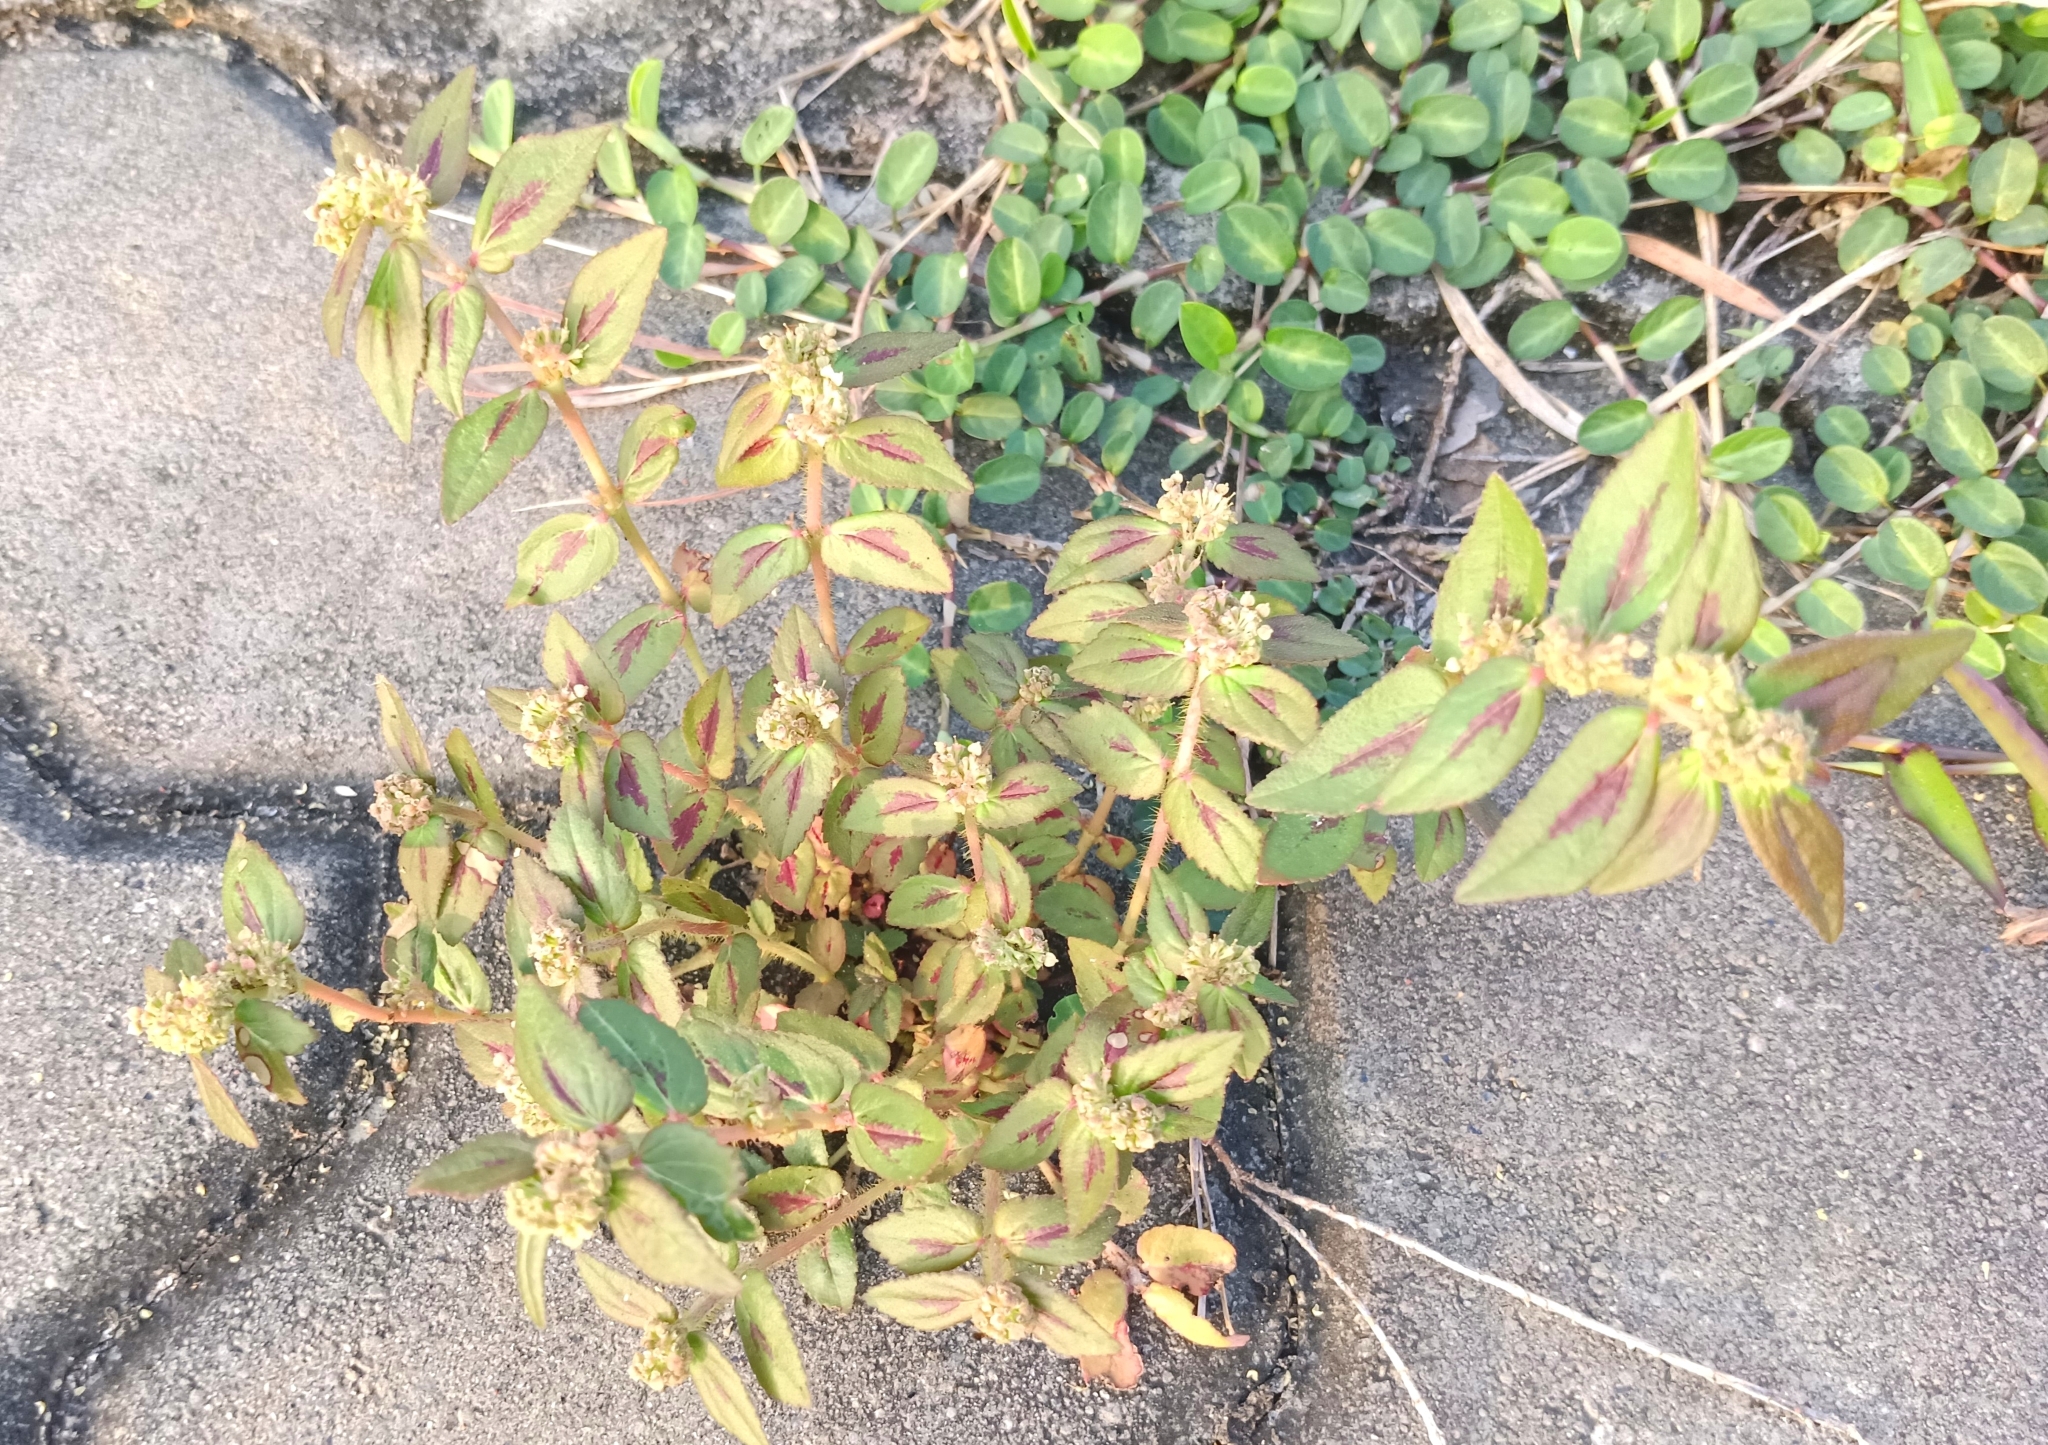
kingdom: Plantae
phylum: Tracheophyta
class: Magnoliopsida
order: Malpighiales
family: Euphorbiaceae
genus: Euphorbia
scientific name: Euphorbia hirta
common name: Pillpod sandmat
